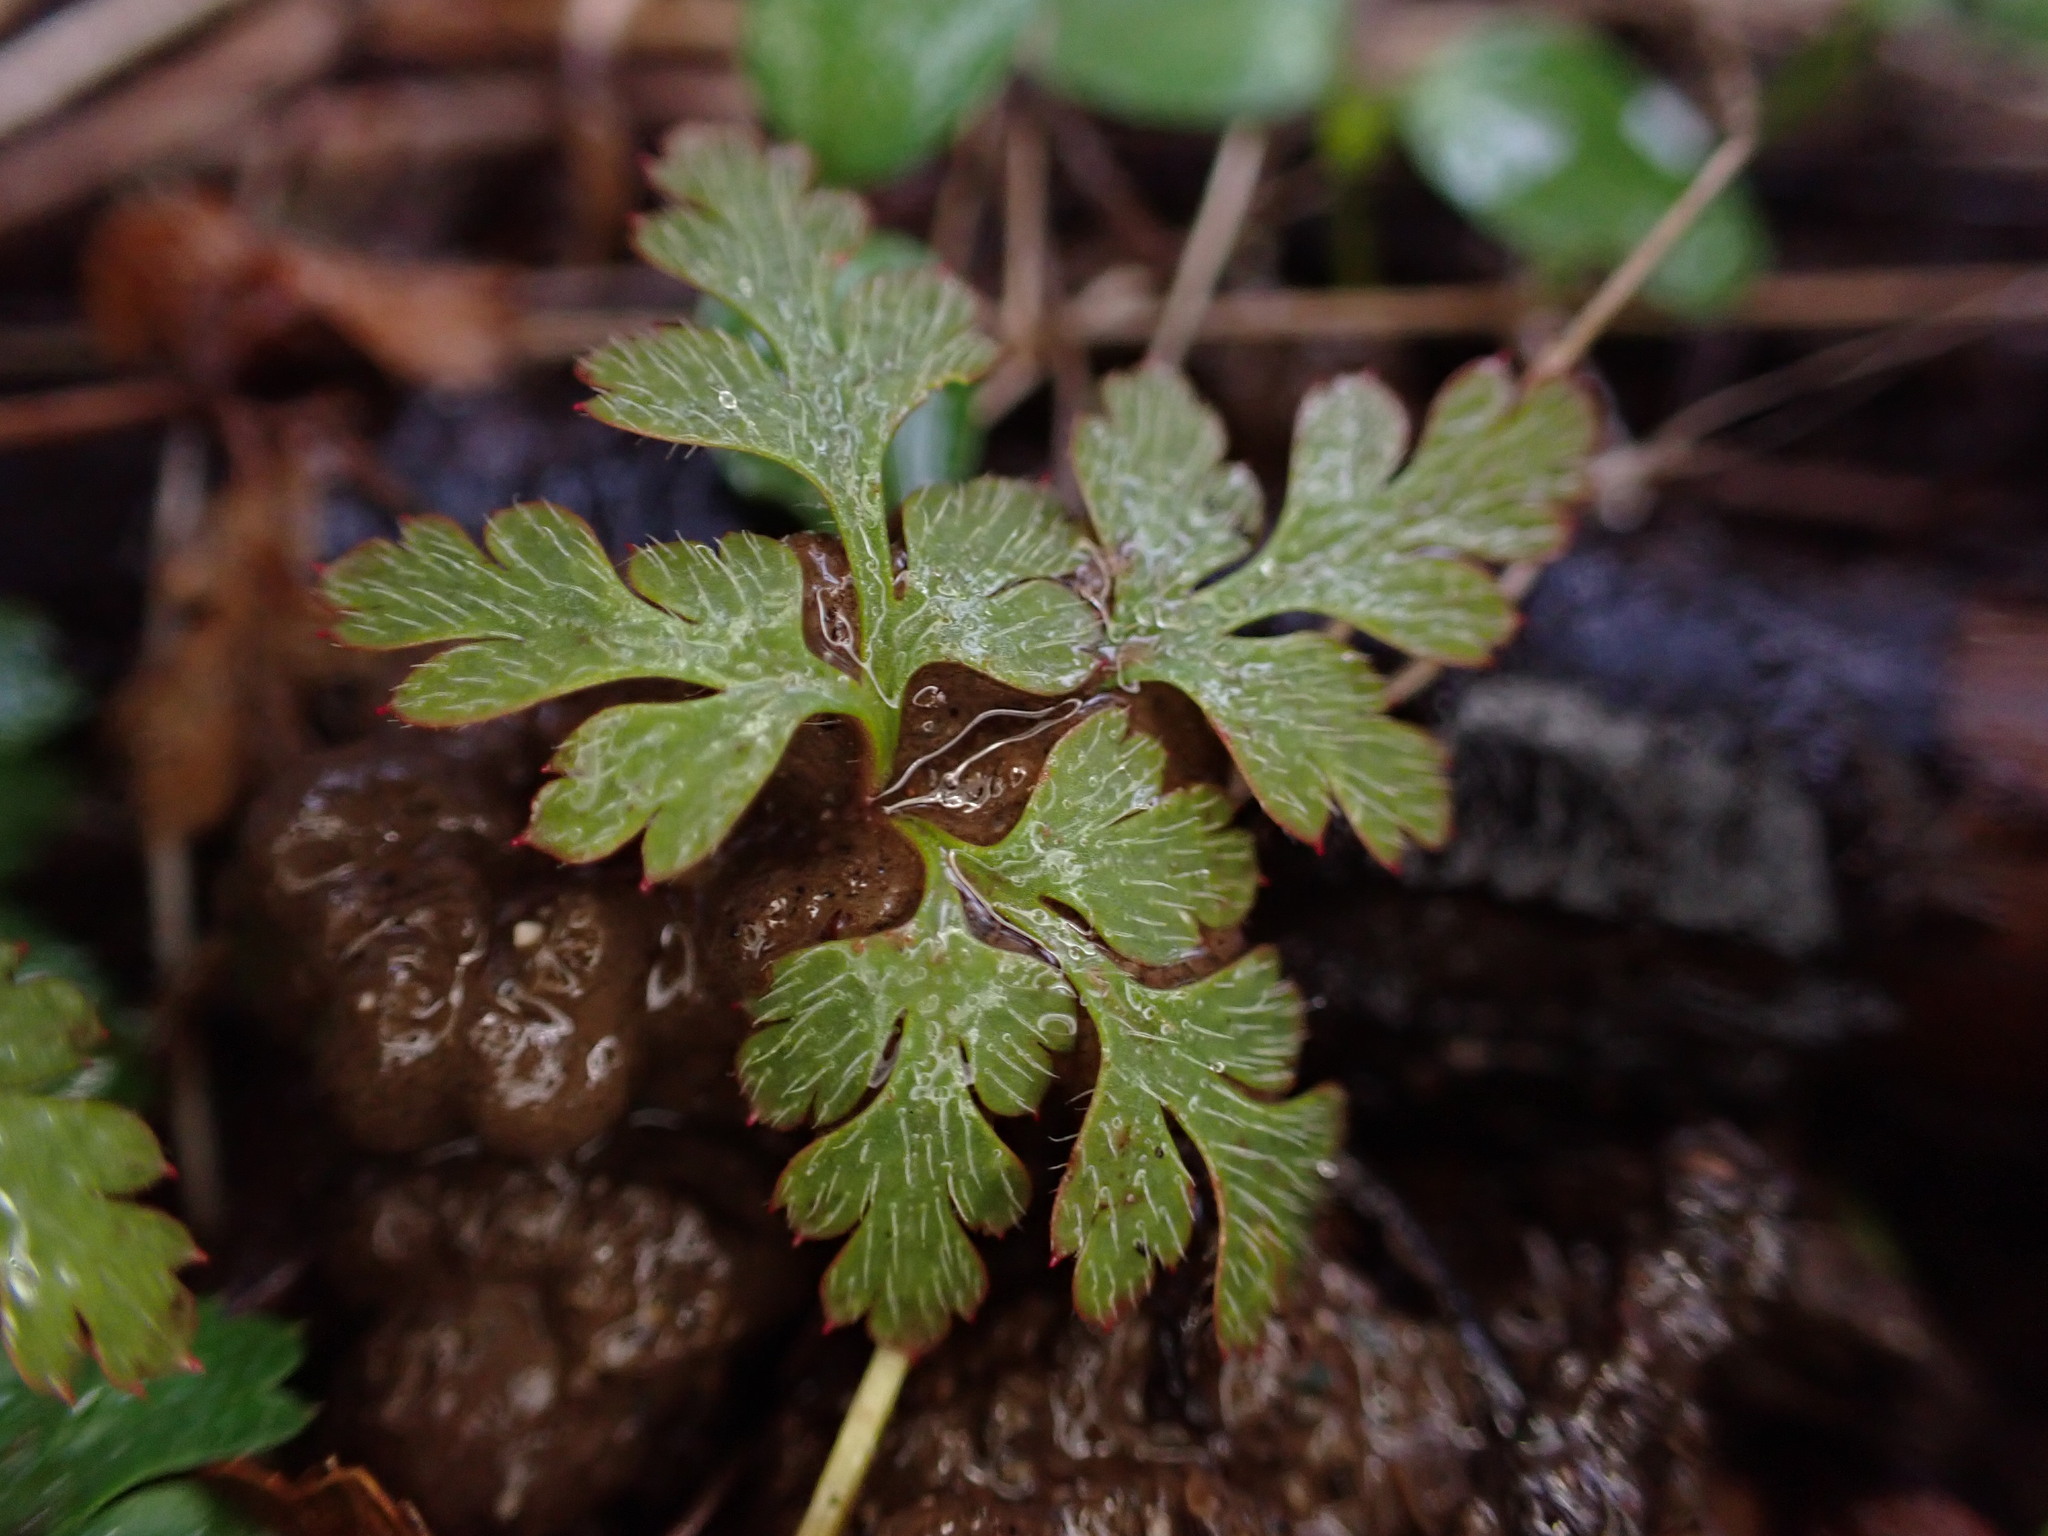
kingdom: Plantae
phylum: Tracheophyta
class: Magnoliopsida
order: Geraniales
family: Geraniaceae
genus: Geranium
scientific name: Geranium robertianum
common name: Herb-robert
